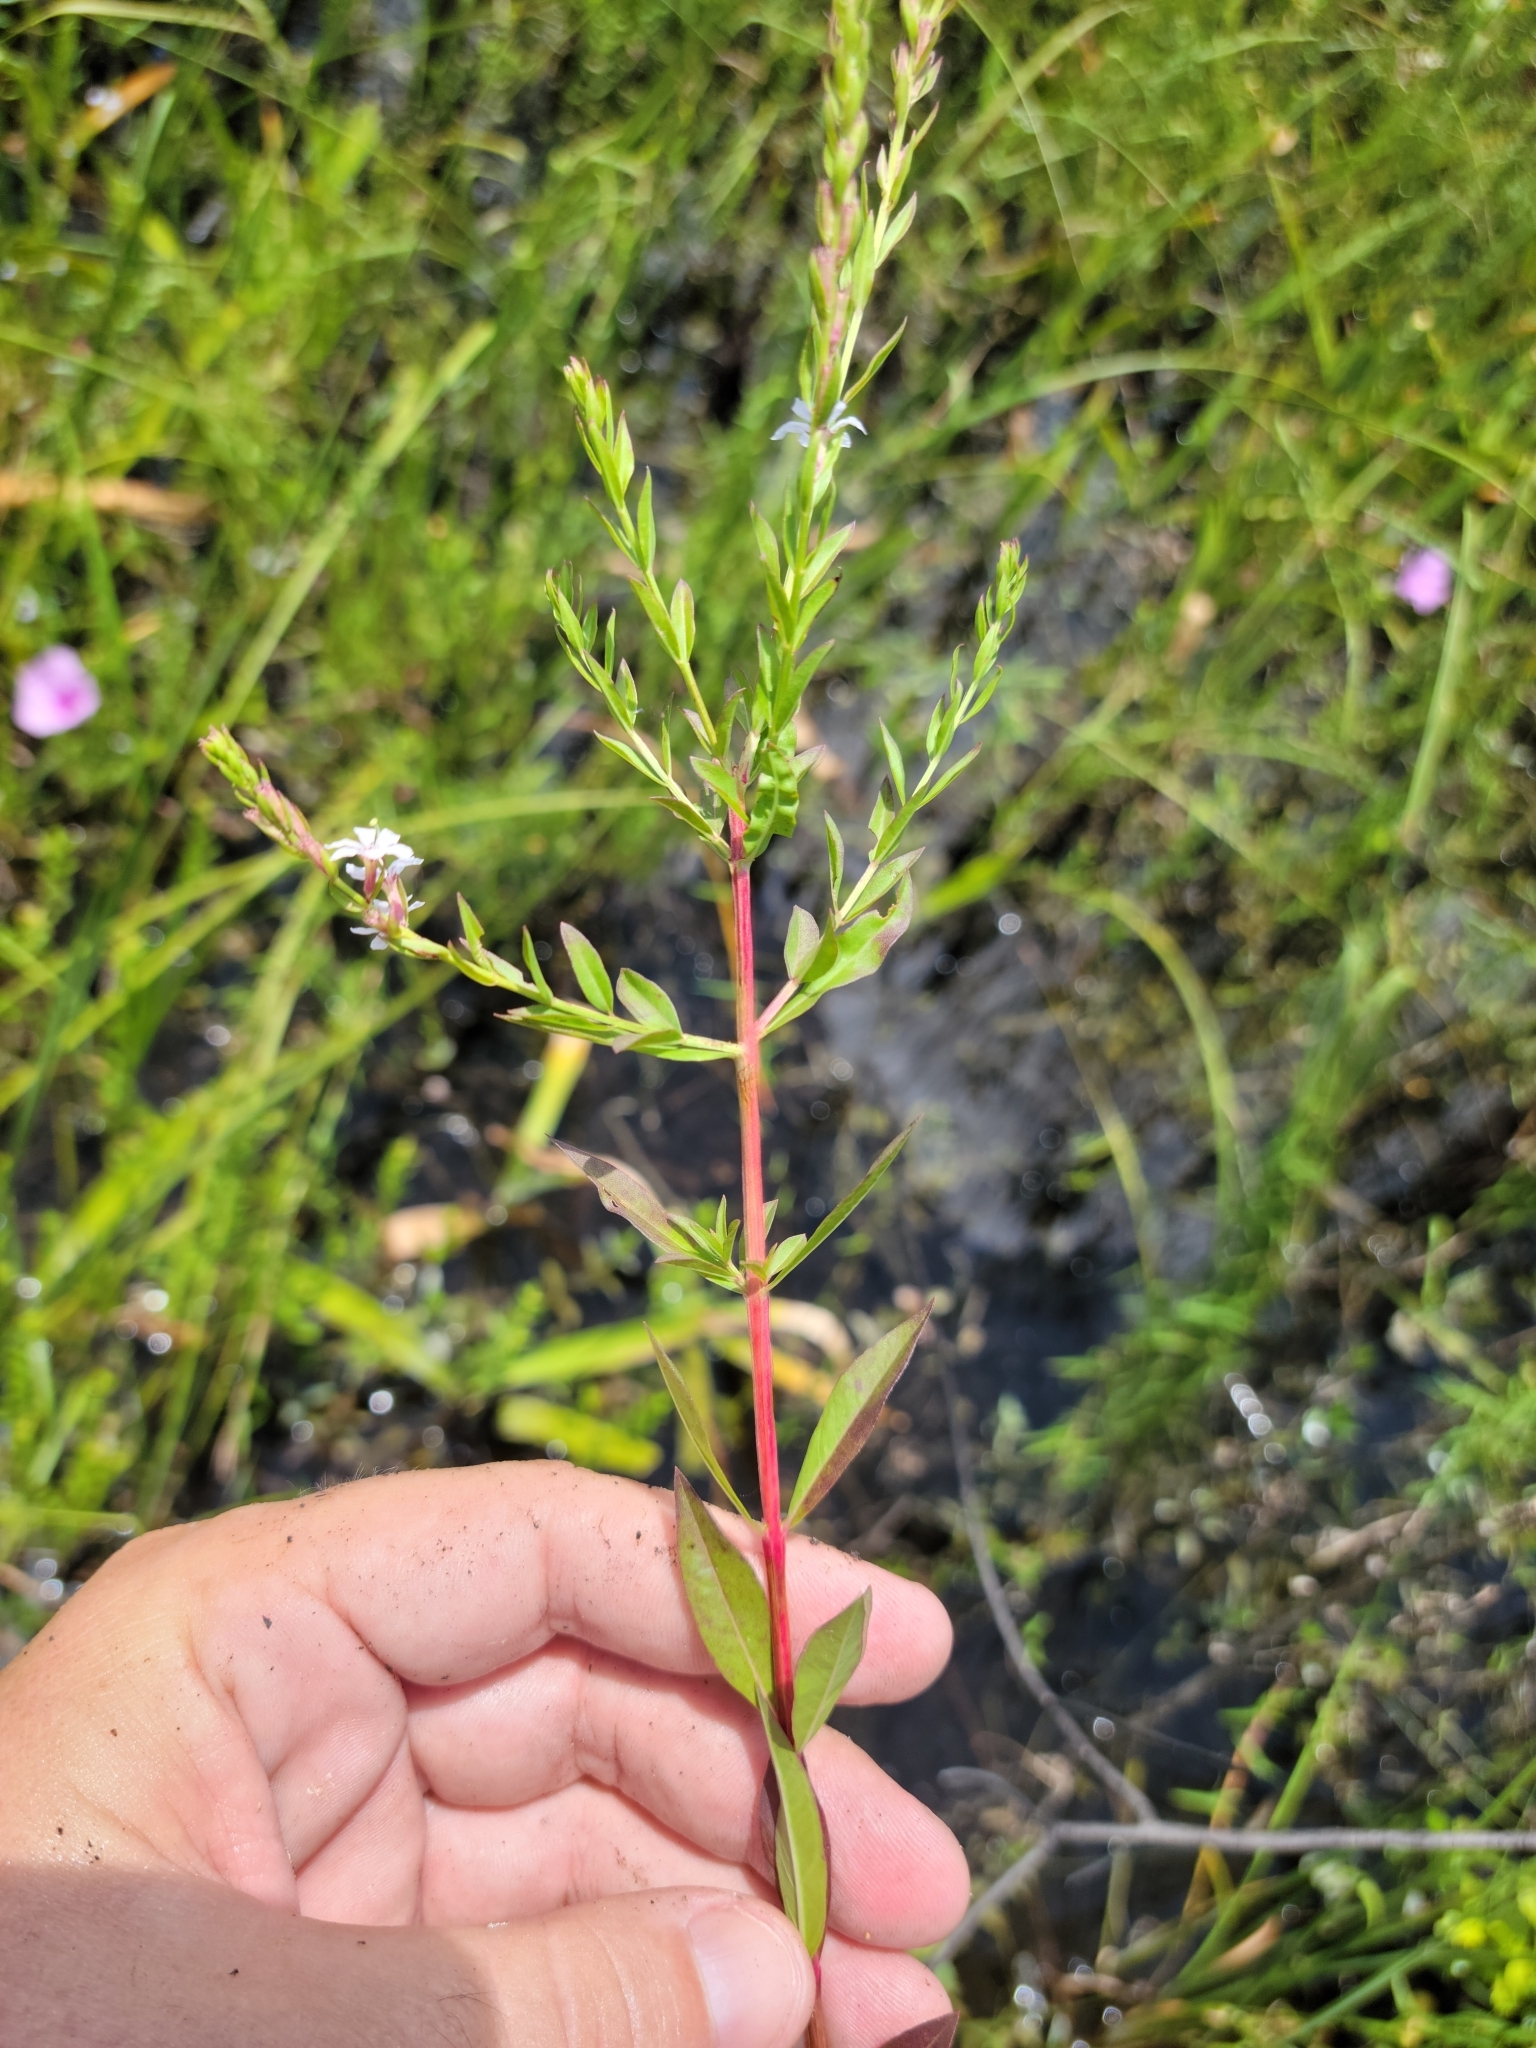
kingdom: Plantae
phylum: Tracheophyta
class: Magnoliopsida
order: Myrtales
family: Lythraceae
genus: Lythrum
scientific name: Lythrum alatum
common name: Winged loosestrife
